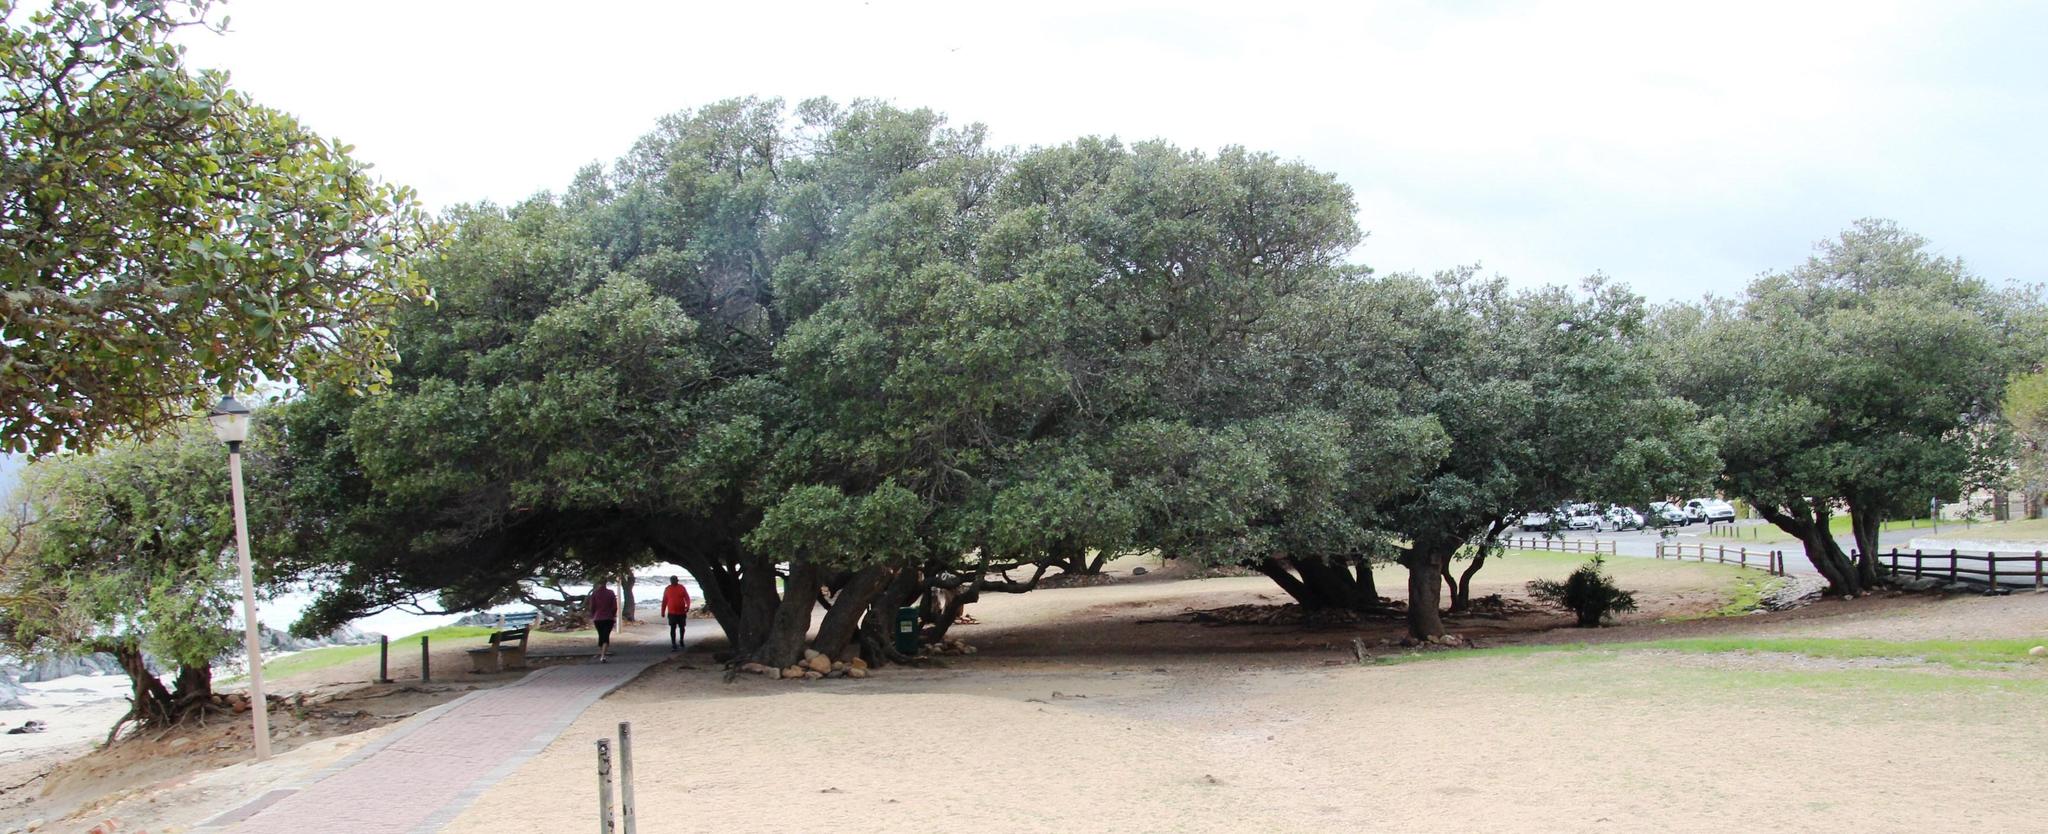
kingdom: Plantae
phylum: Tracheophyta
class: Magnoliopsida
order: Ericales
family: Sapotaceae
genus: Sideroxylon
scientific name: Sideroxylon inerme
